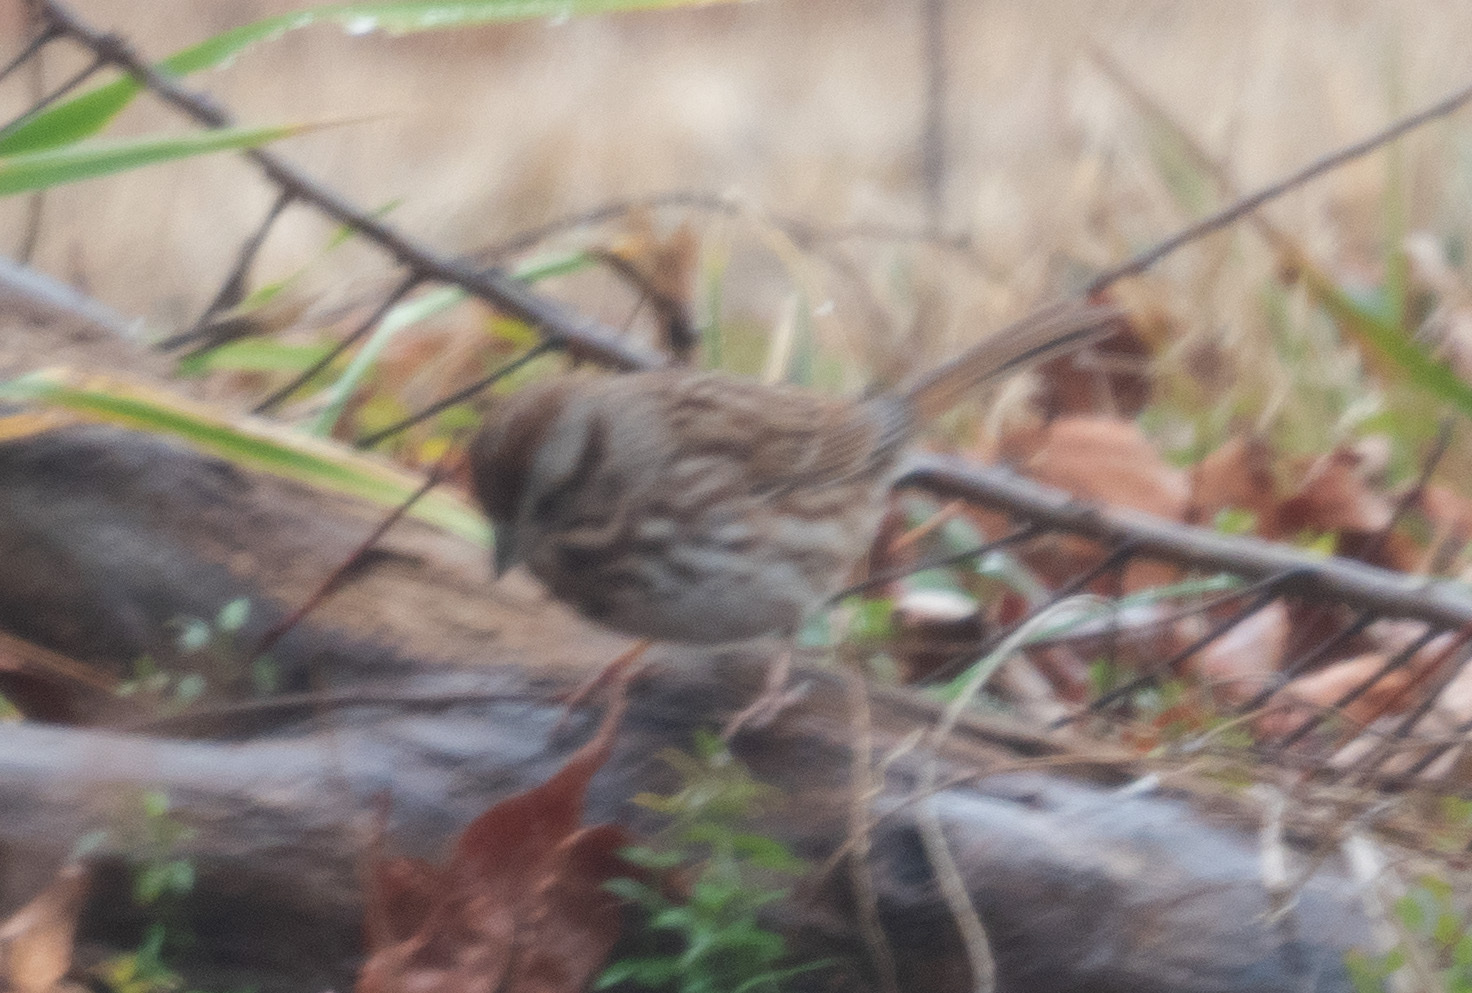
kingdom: Animalia
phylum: Chordata
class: Aves
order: Passeriformes
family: Passerellidae
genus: Melospiza
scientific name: Melospiza melodia
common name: Song sparrow
